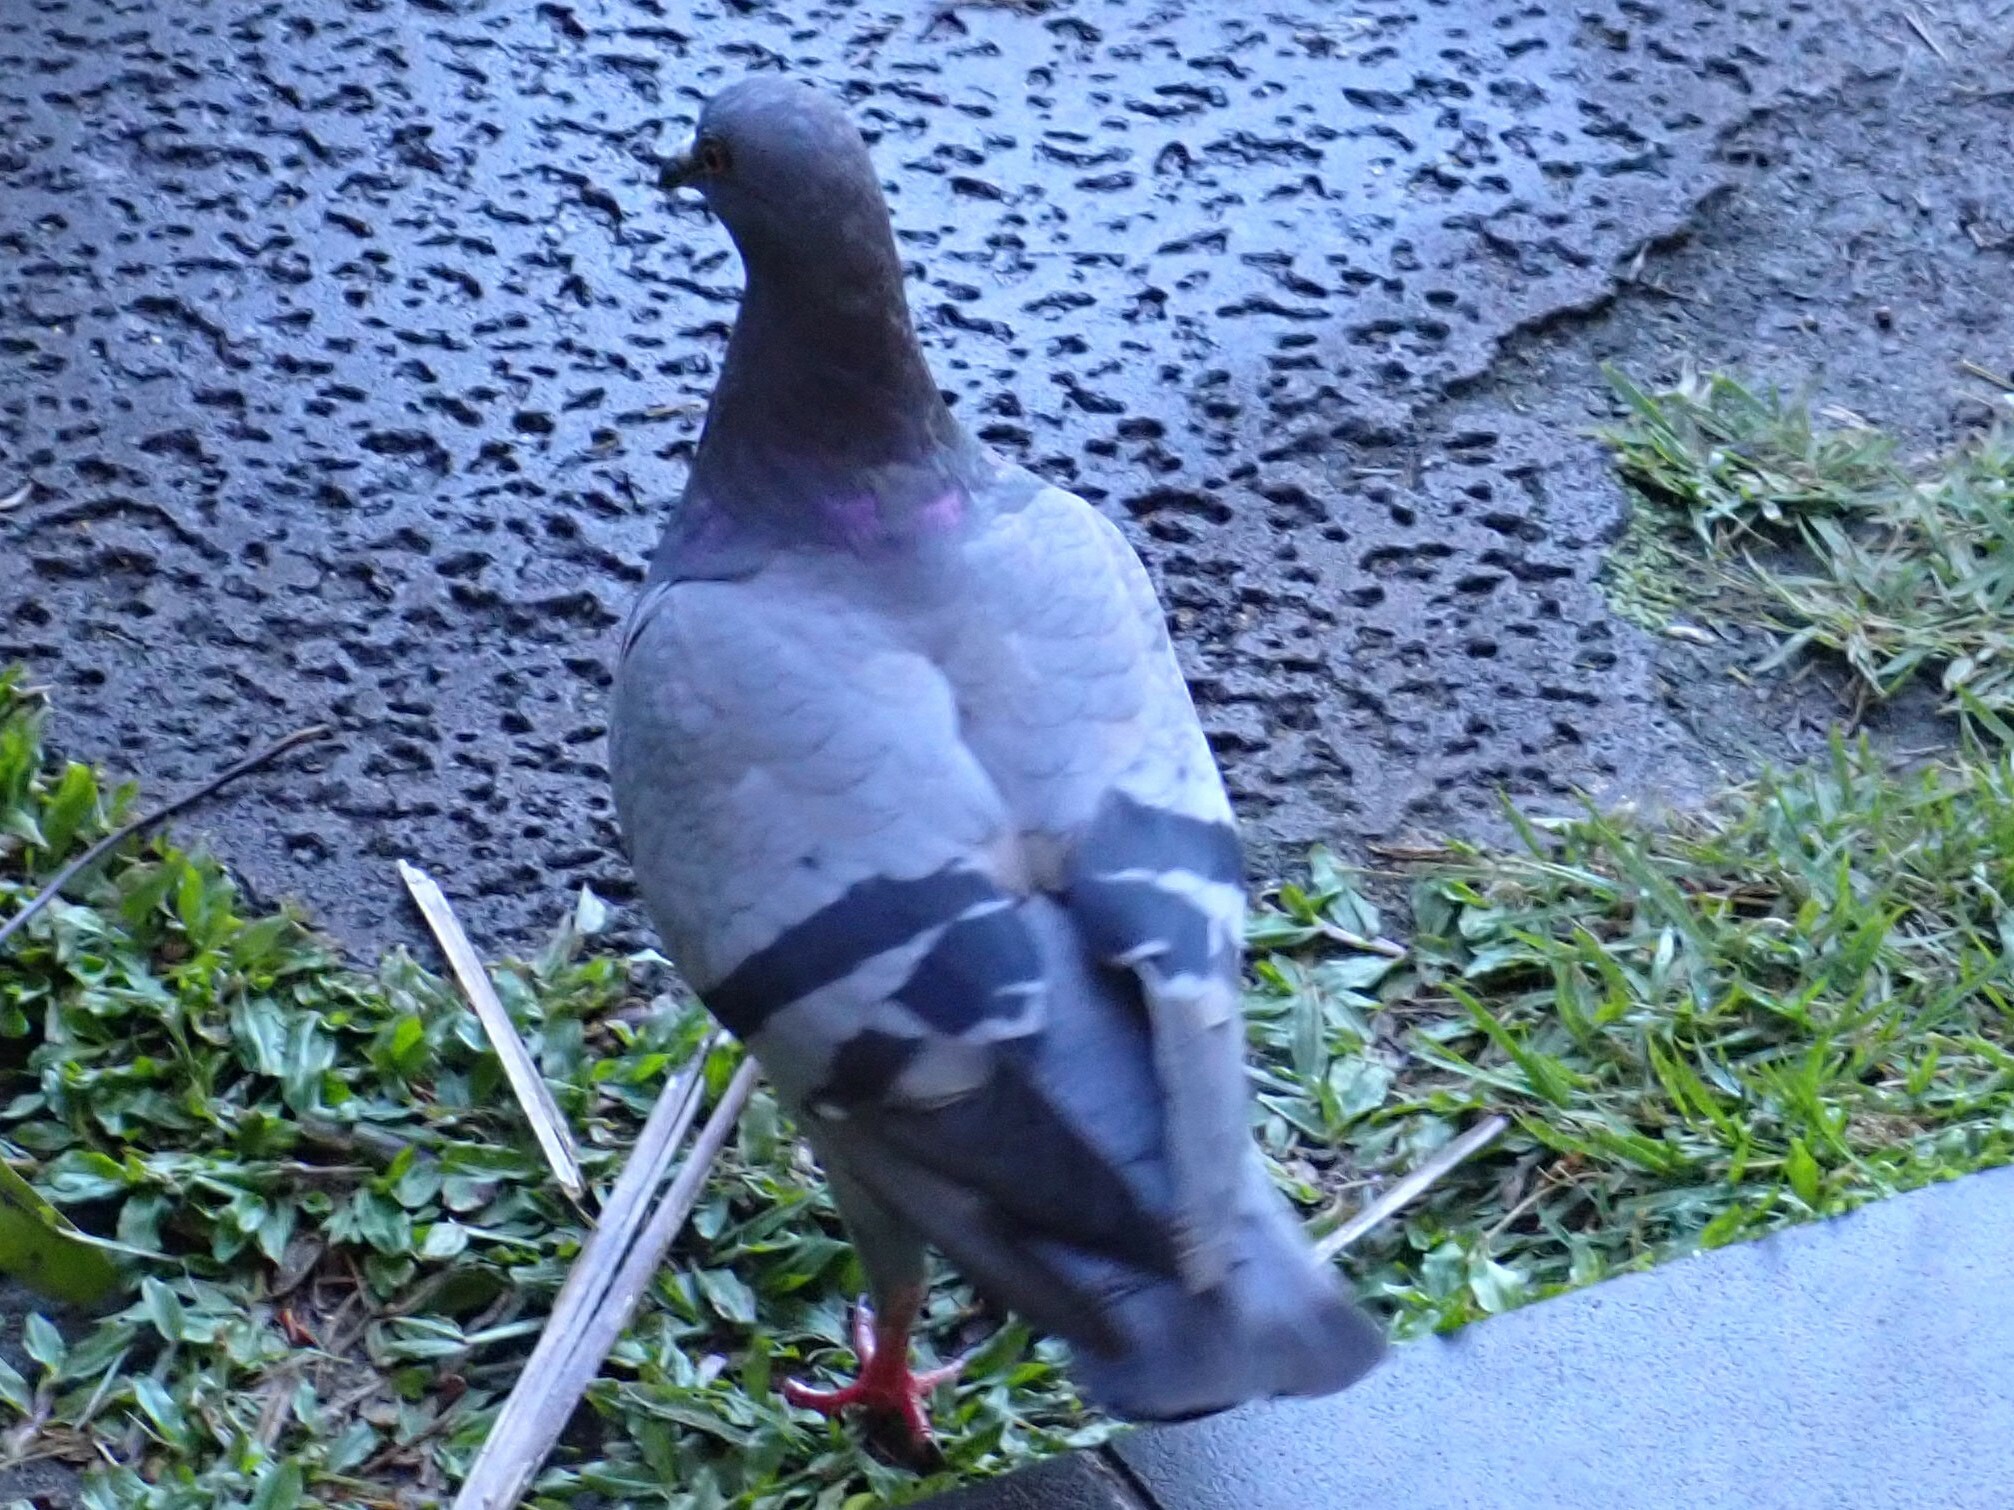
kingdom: Animalia
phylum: Chordata
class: Aves
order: Columbiformes
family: Columbidae
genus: Columba
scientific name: Columba livia
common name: Rock pigeon
